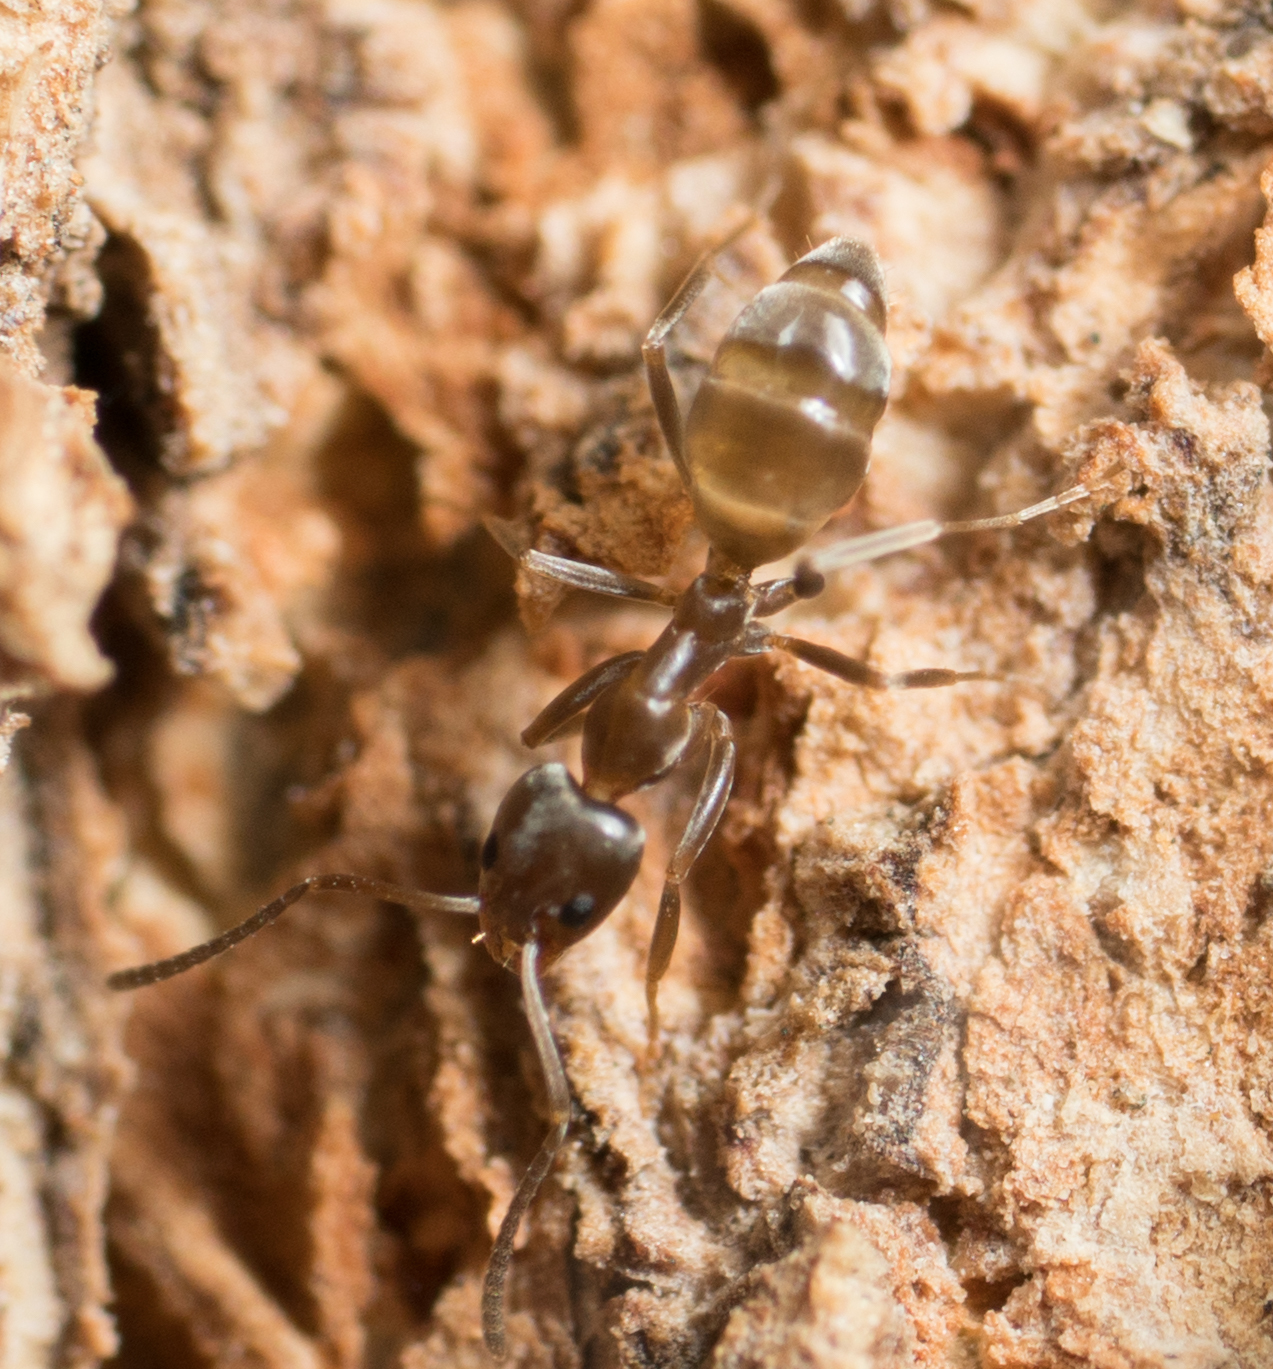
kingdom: Animalia
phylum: Arthropoda
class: Insecta
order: Hymenoptera
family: Formicidae
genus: Linepithema
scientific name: Linepithema humile
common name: Argentine ant
